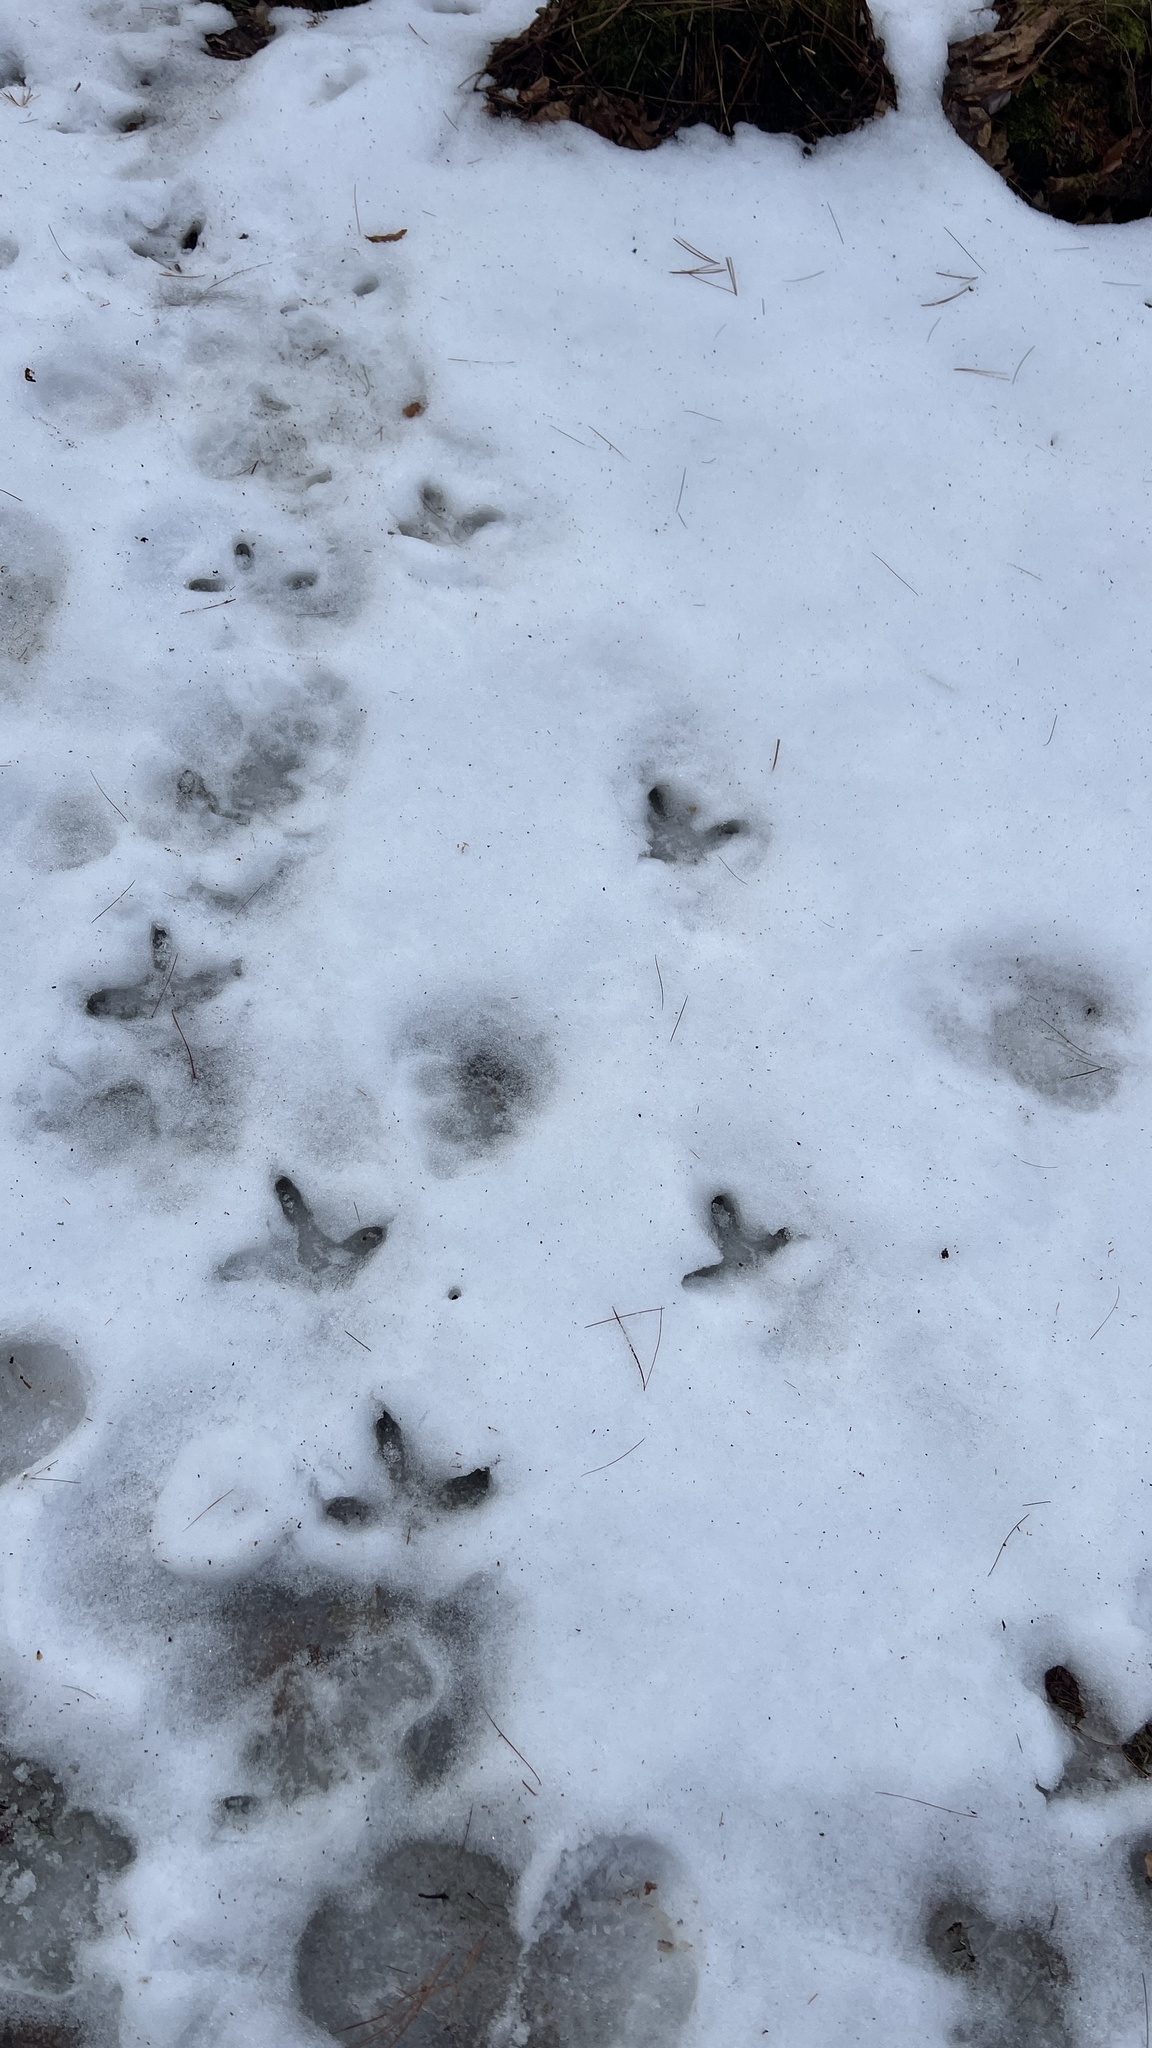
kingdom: Animalia
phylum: Chordata
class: Aves
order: Galliformes
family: Phasianidae
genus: Meleagris
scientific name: Meleagris gallopavo
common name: Wild turkey
